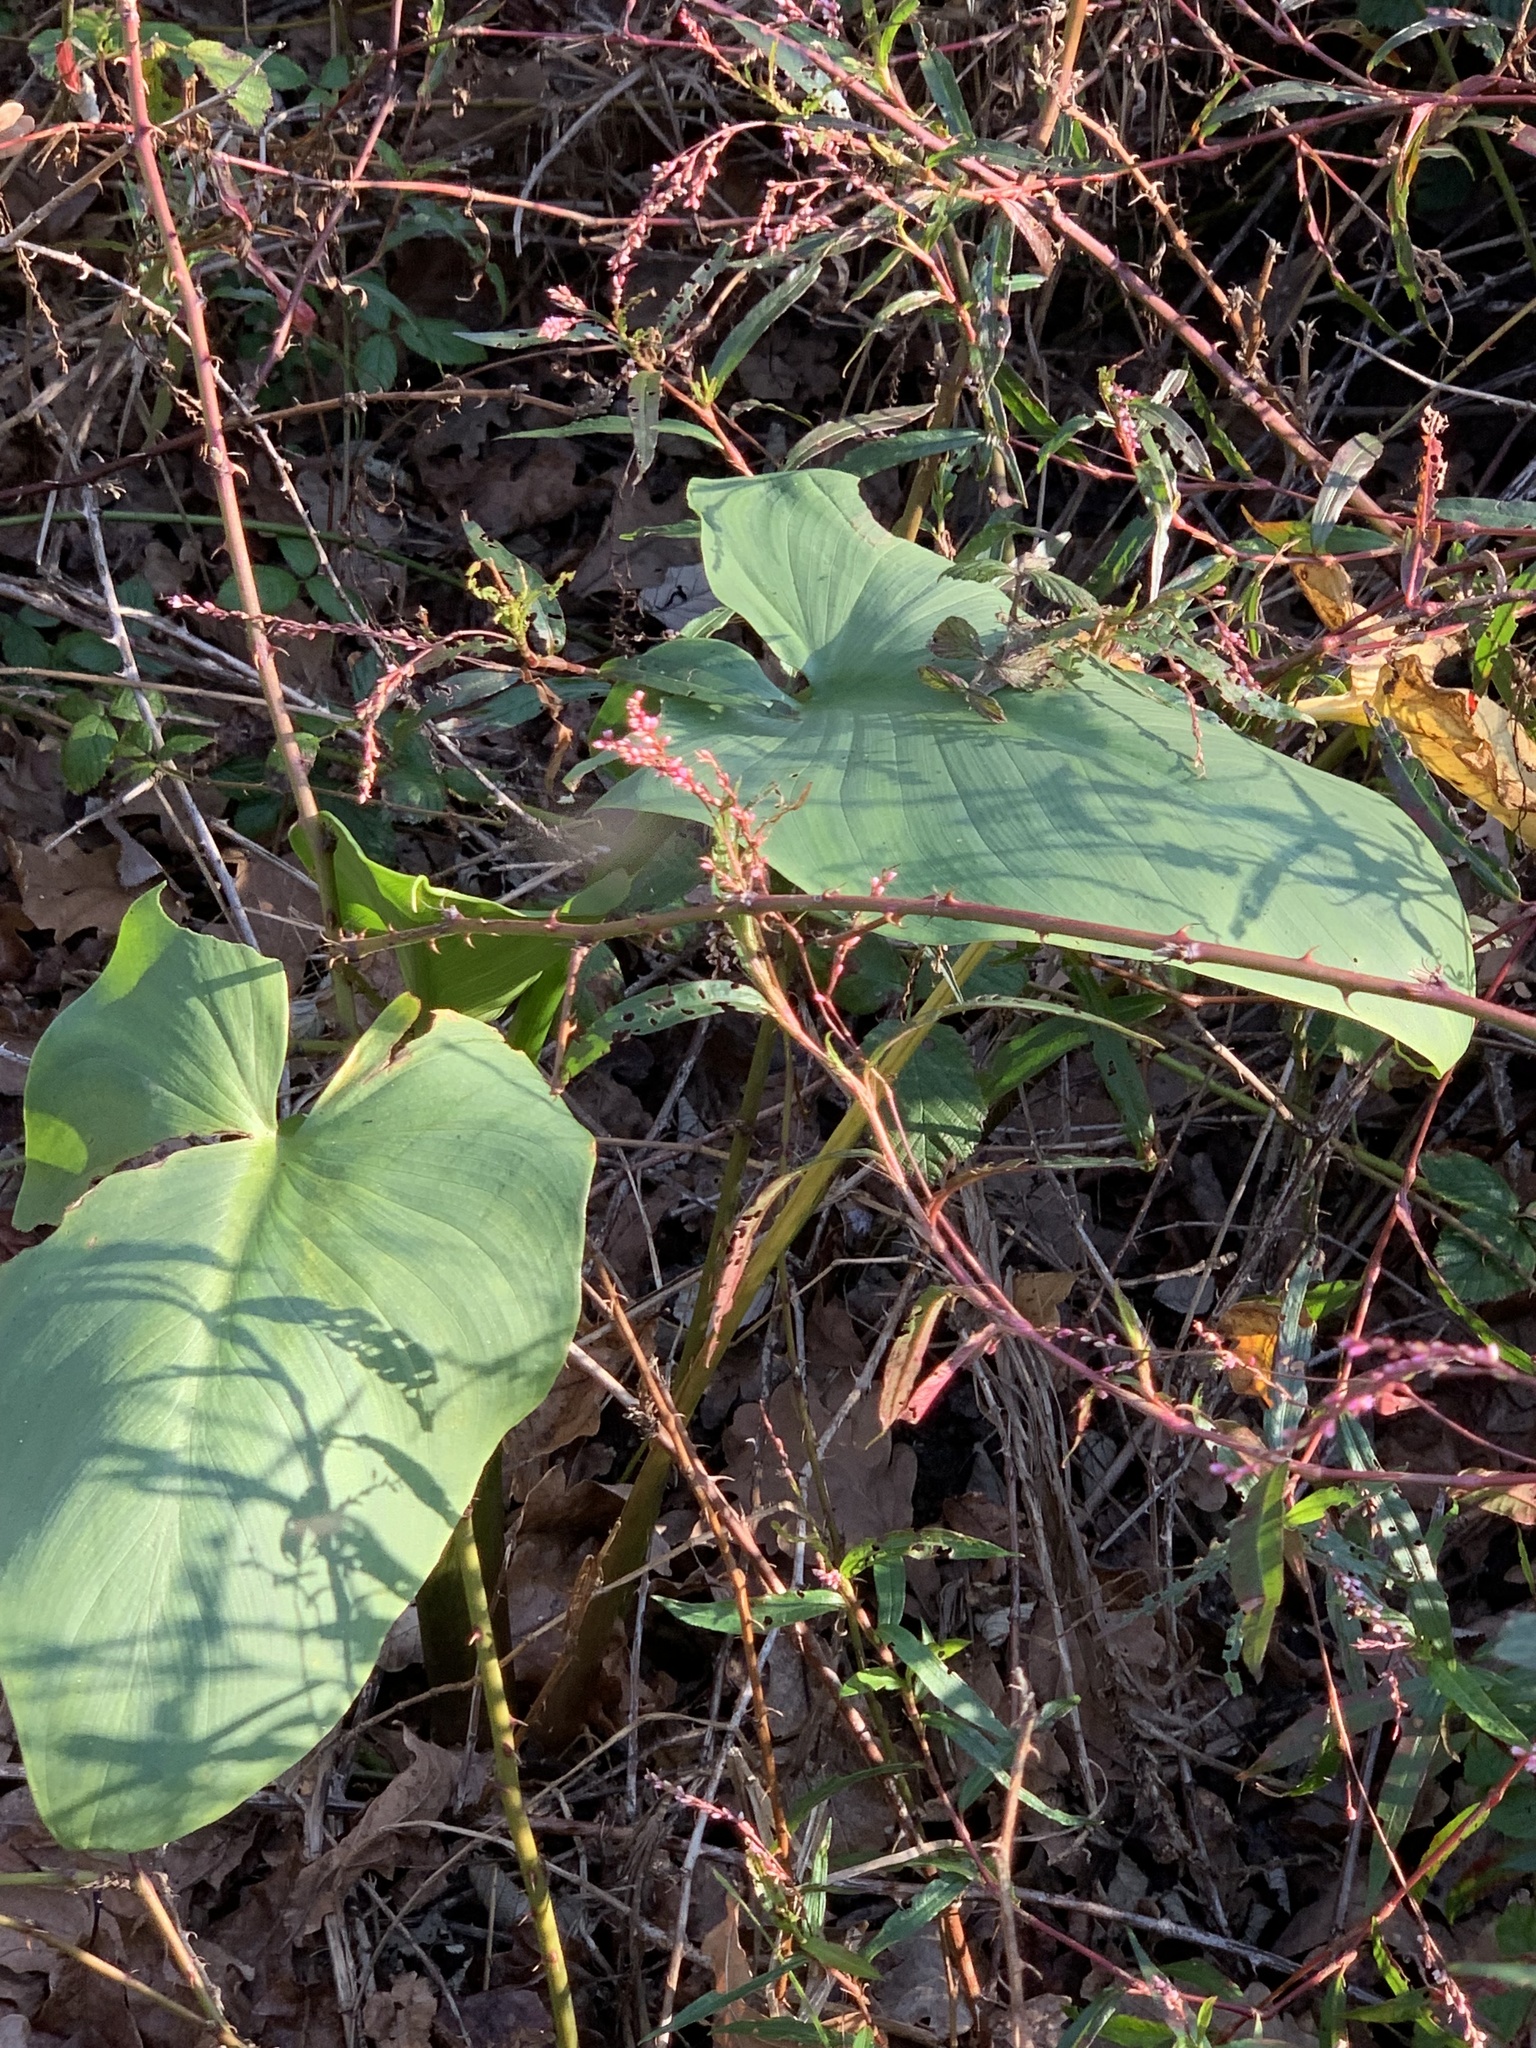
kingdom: Plantae
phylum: Tracheophyta
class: Liliopsida
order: Alismatales
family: Araceae
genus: Zantedeschia
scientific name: Zantedeschia aethiopica
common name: Altar-lily
